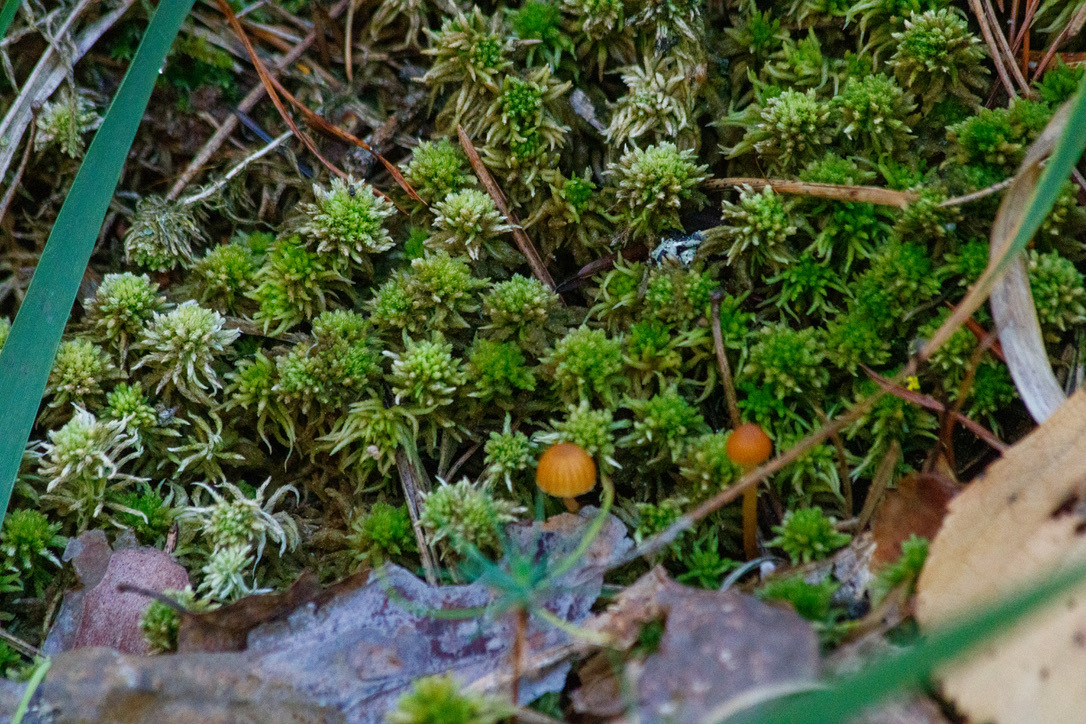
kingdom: Plantae
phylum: Bryophyta
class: Sphagnopsida
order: Sphagnales
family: Sphagnaceae
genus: Sphagnum
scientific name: Sphagnum angustifolium
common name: Narrow-leaved peat moss
